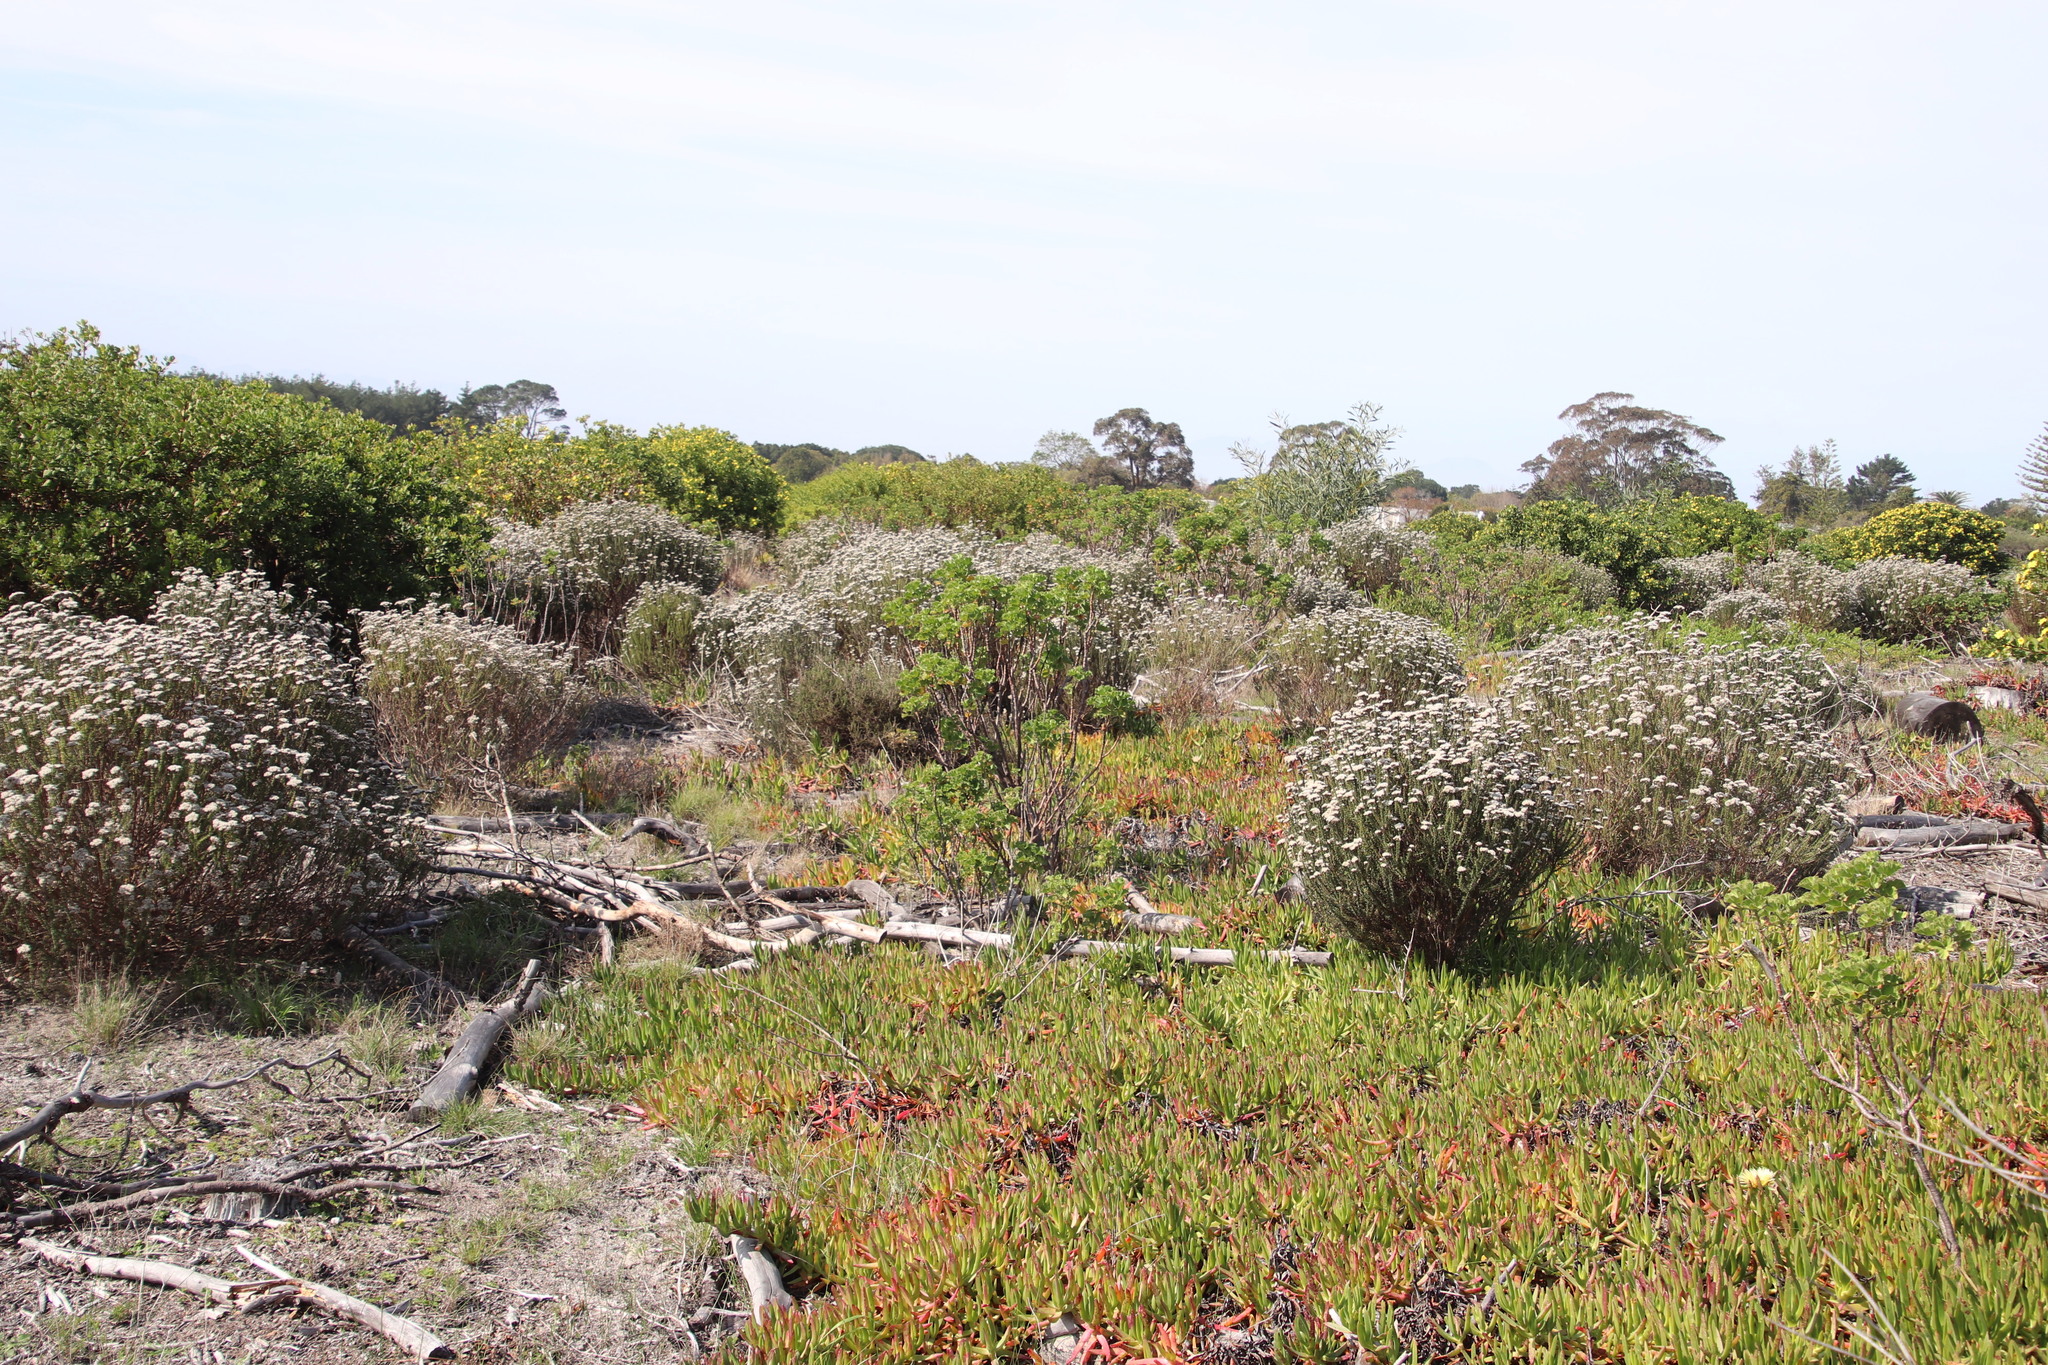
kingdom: Plantae
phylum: Tracheophyta
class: Magnoliopsida
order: Geraniales
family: Geraniaceae
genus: Pelargonium
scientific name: Pelargonium cucullatum
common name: Tree pelargonium
